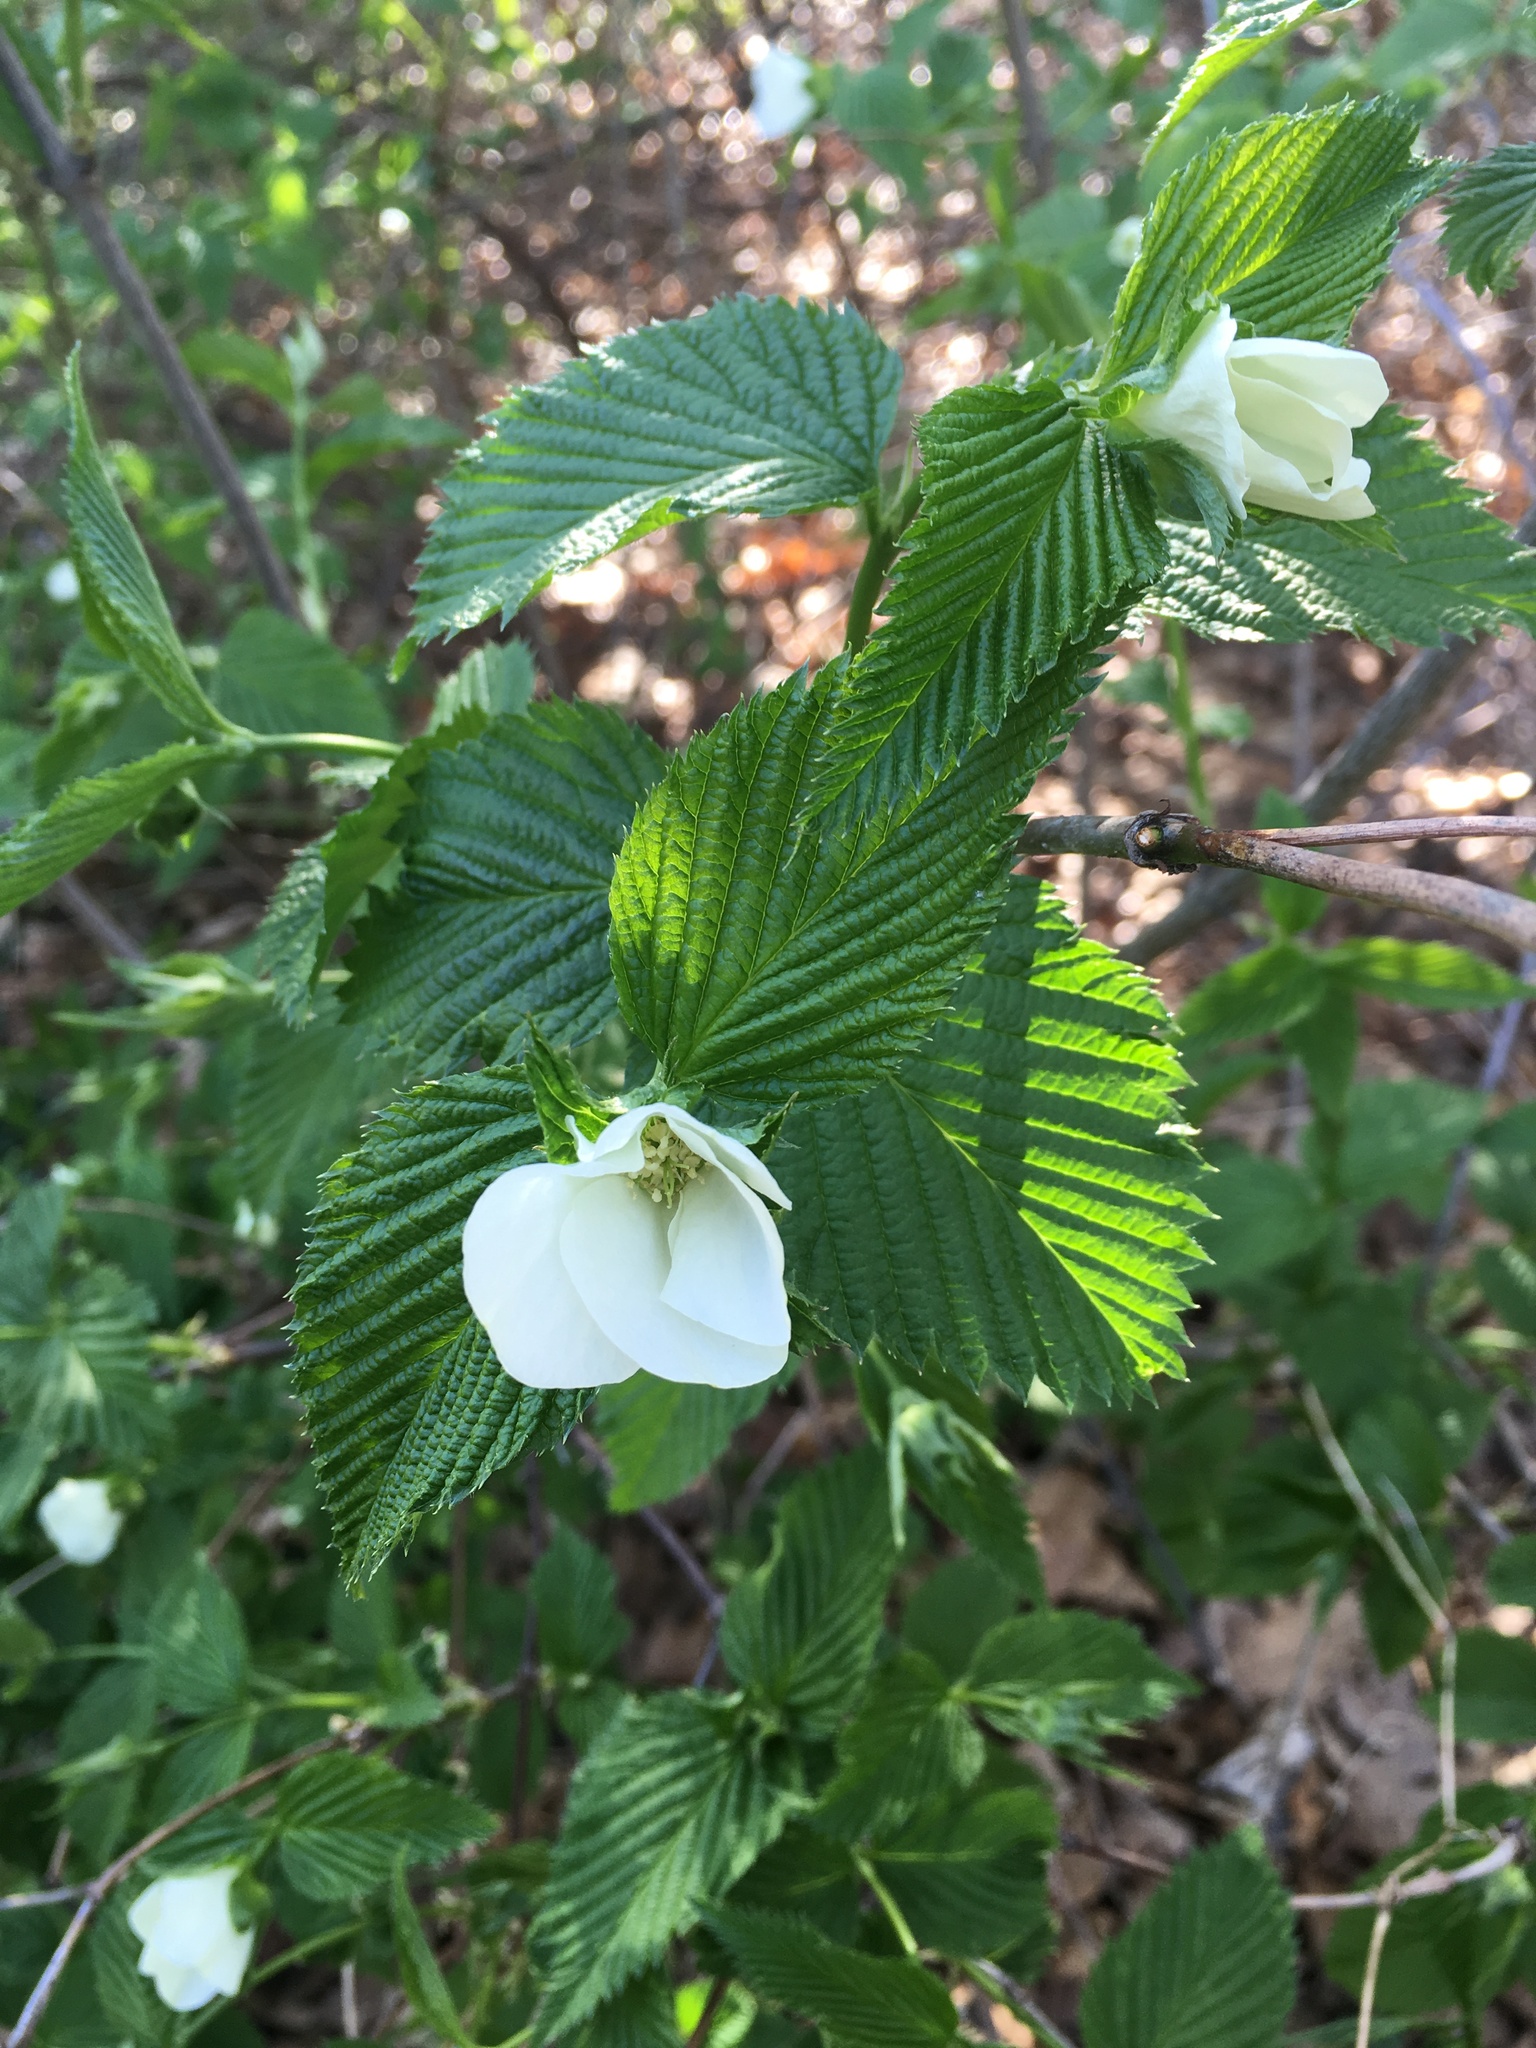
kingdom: Plantae
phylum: Tracheophyta
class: Magnoliopsida
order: Rosales
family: Rosaceae
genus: Rhodotypos
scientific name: Rhodotypos scandens
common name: Jetbead
